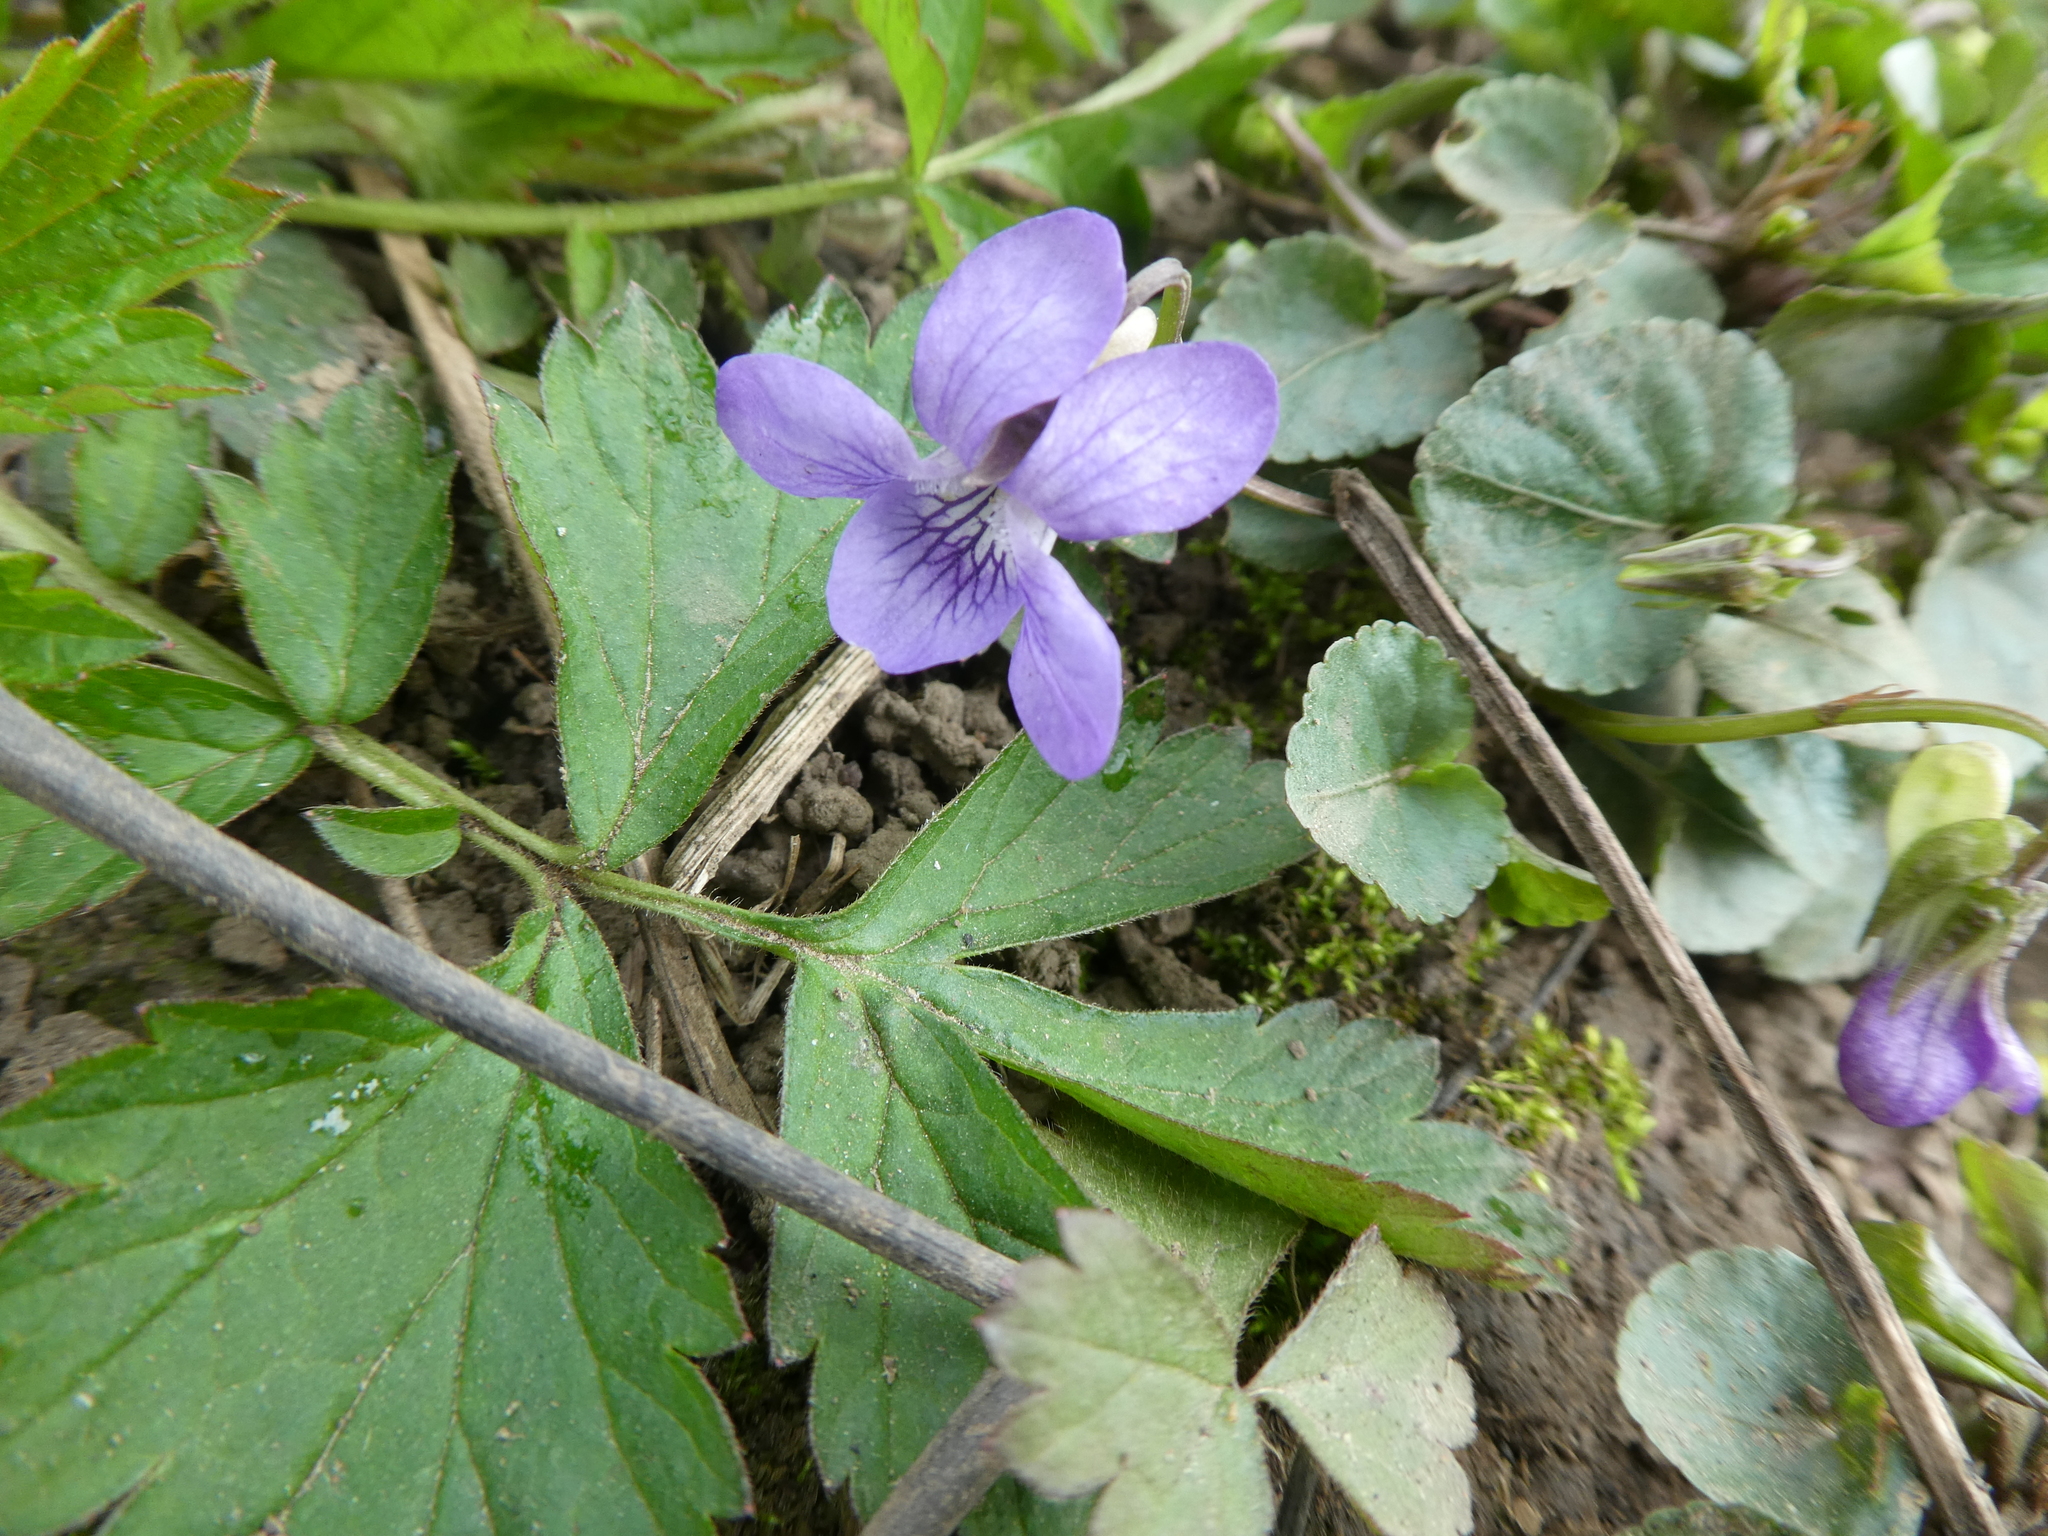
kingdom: Plantae
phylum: Tracheophyta
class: Magnoliopsida
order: Malpighiales
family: Violaceae
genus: Viola
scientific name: Viola riviniana
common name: Common dog-violet
